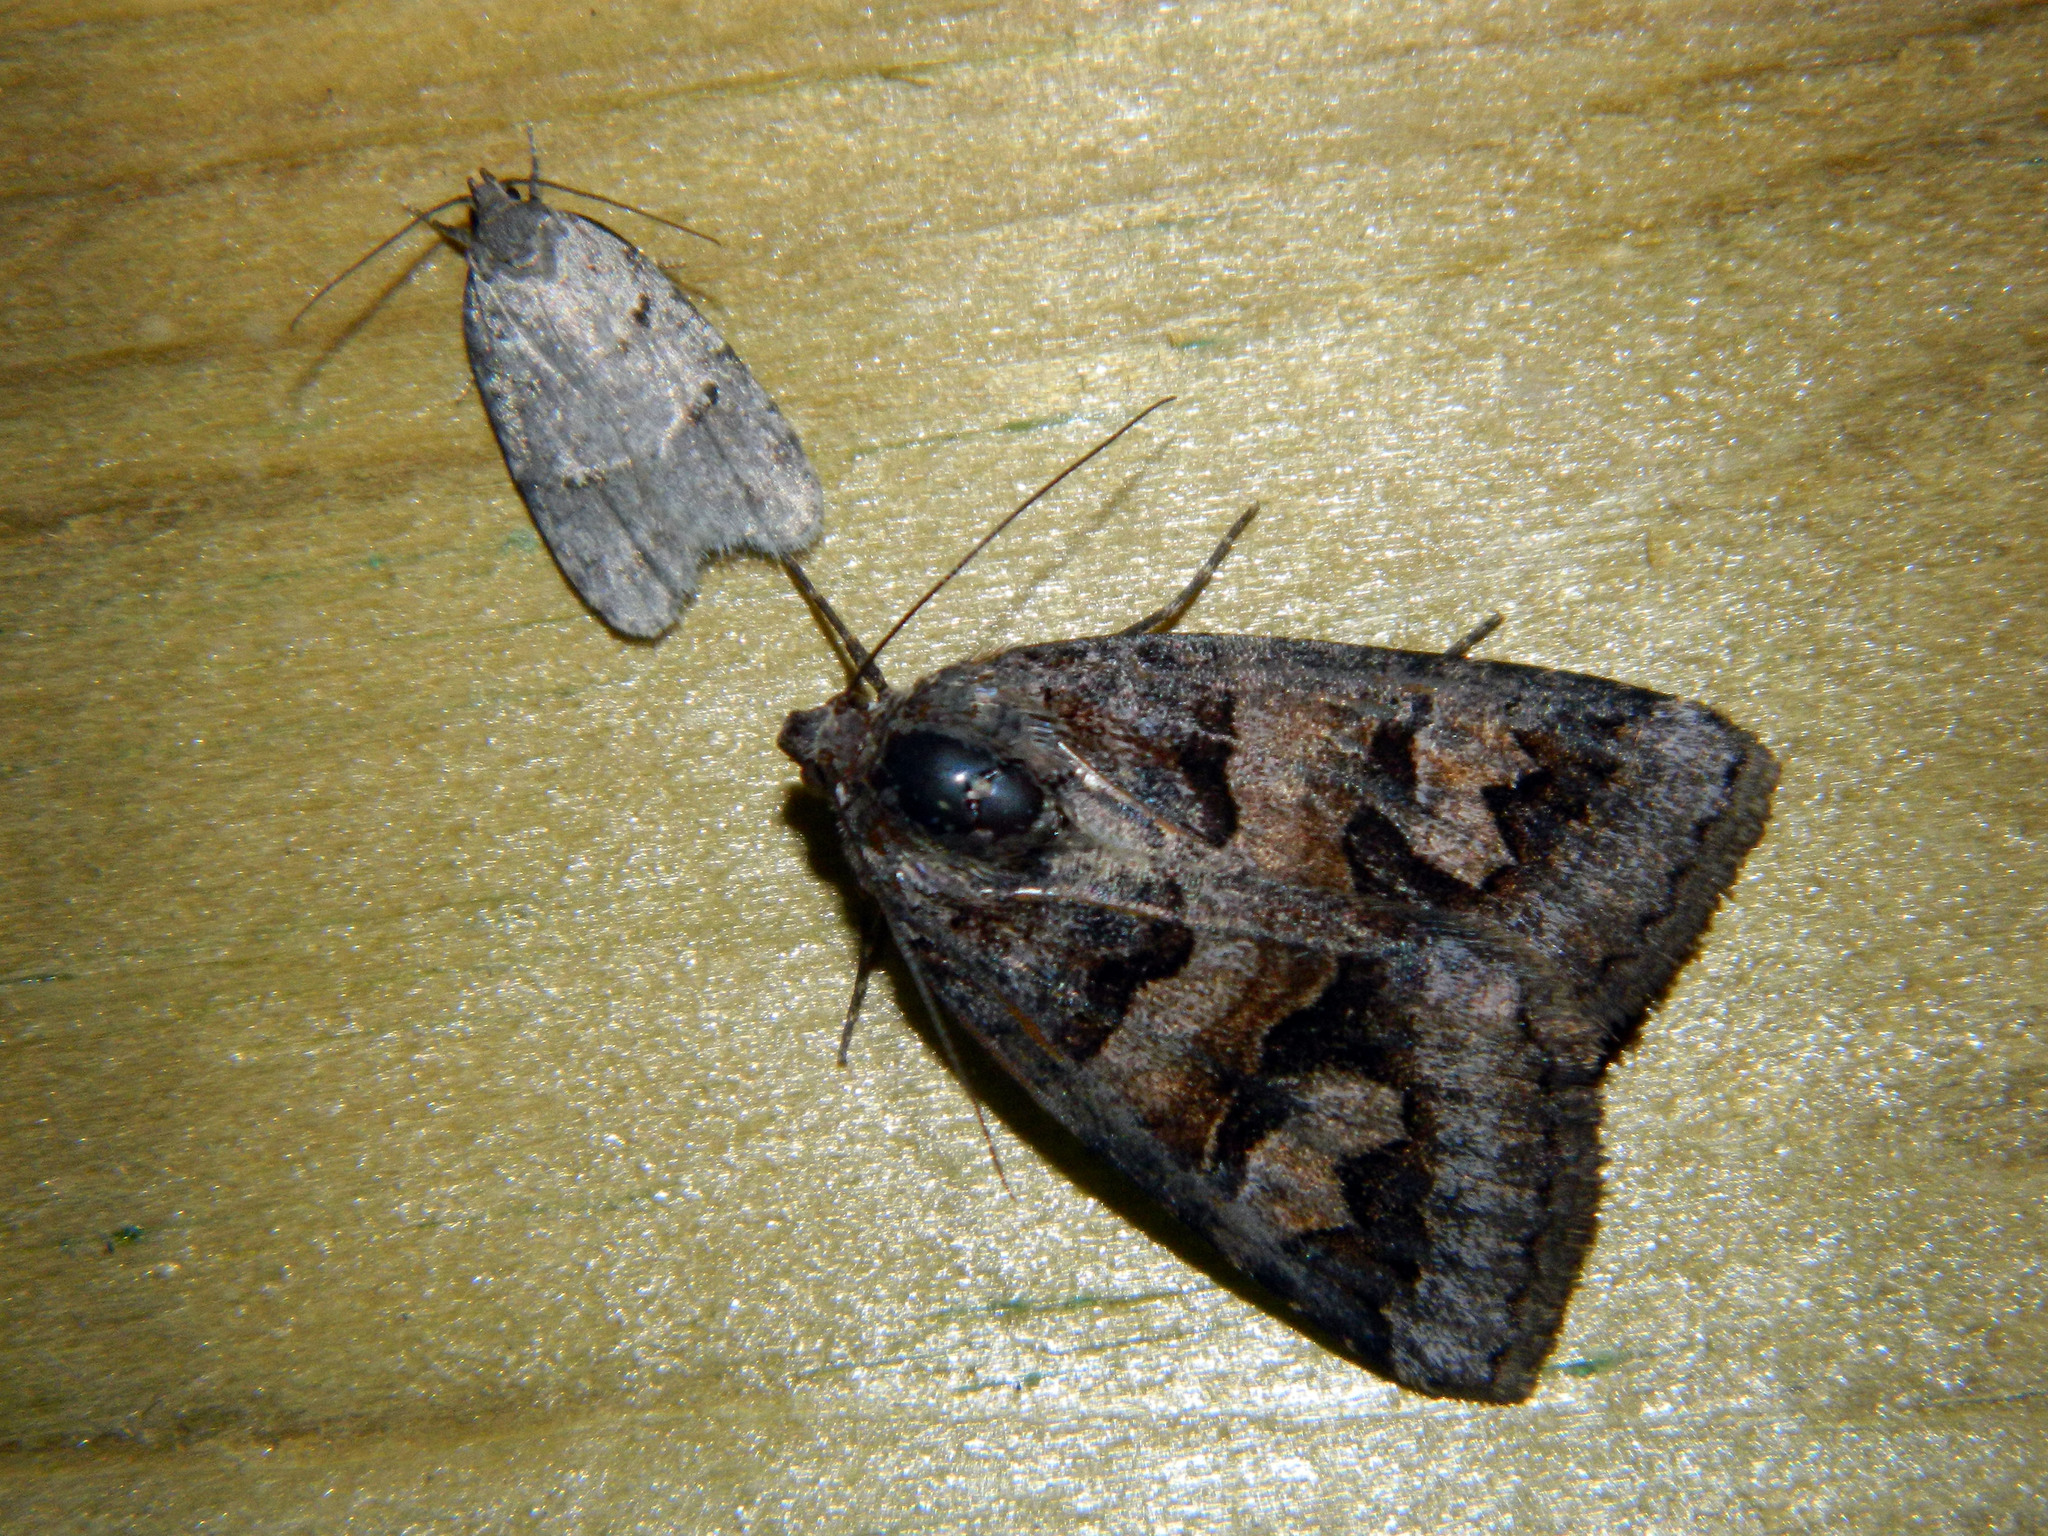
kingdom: Animalia
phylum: Arthropoda
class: Insecta
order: Lepidoptera
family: Erebidae
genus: Drasteria
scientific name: Drasteria adumbrata
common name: Shadowy arches
